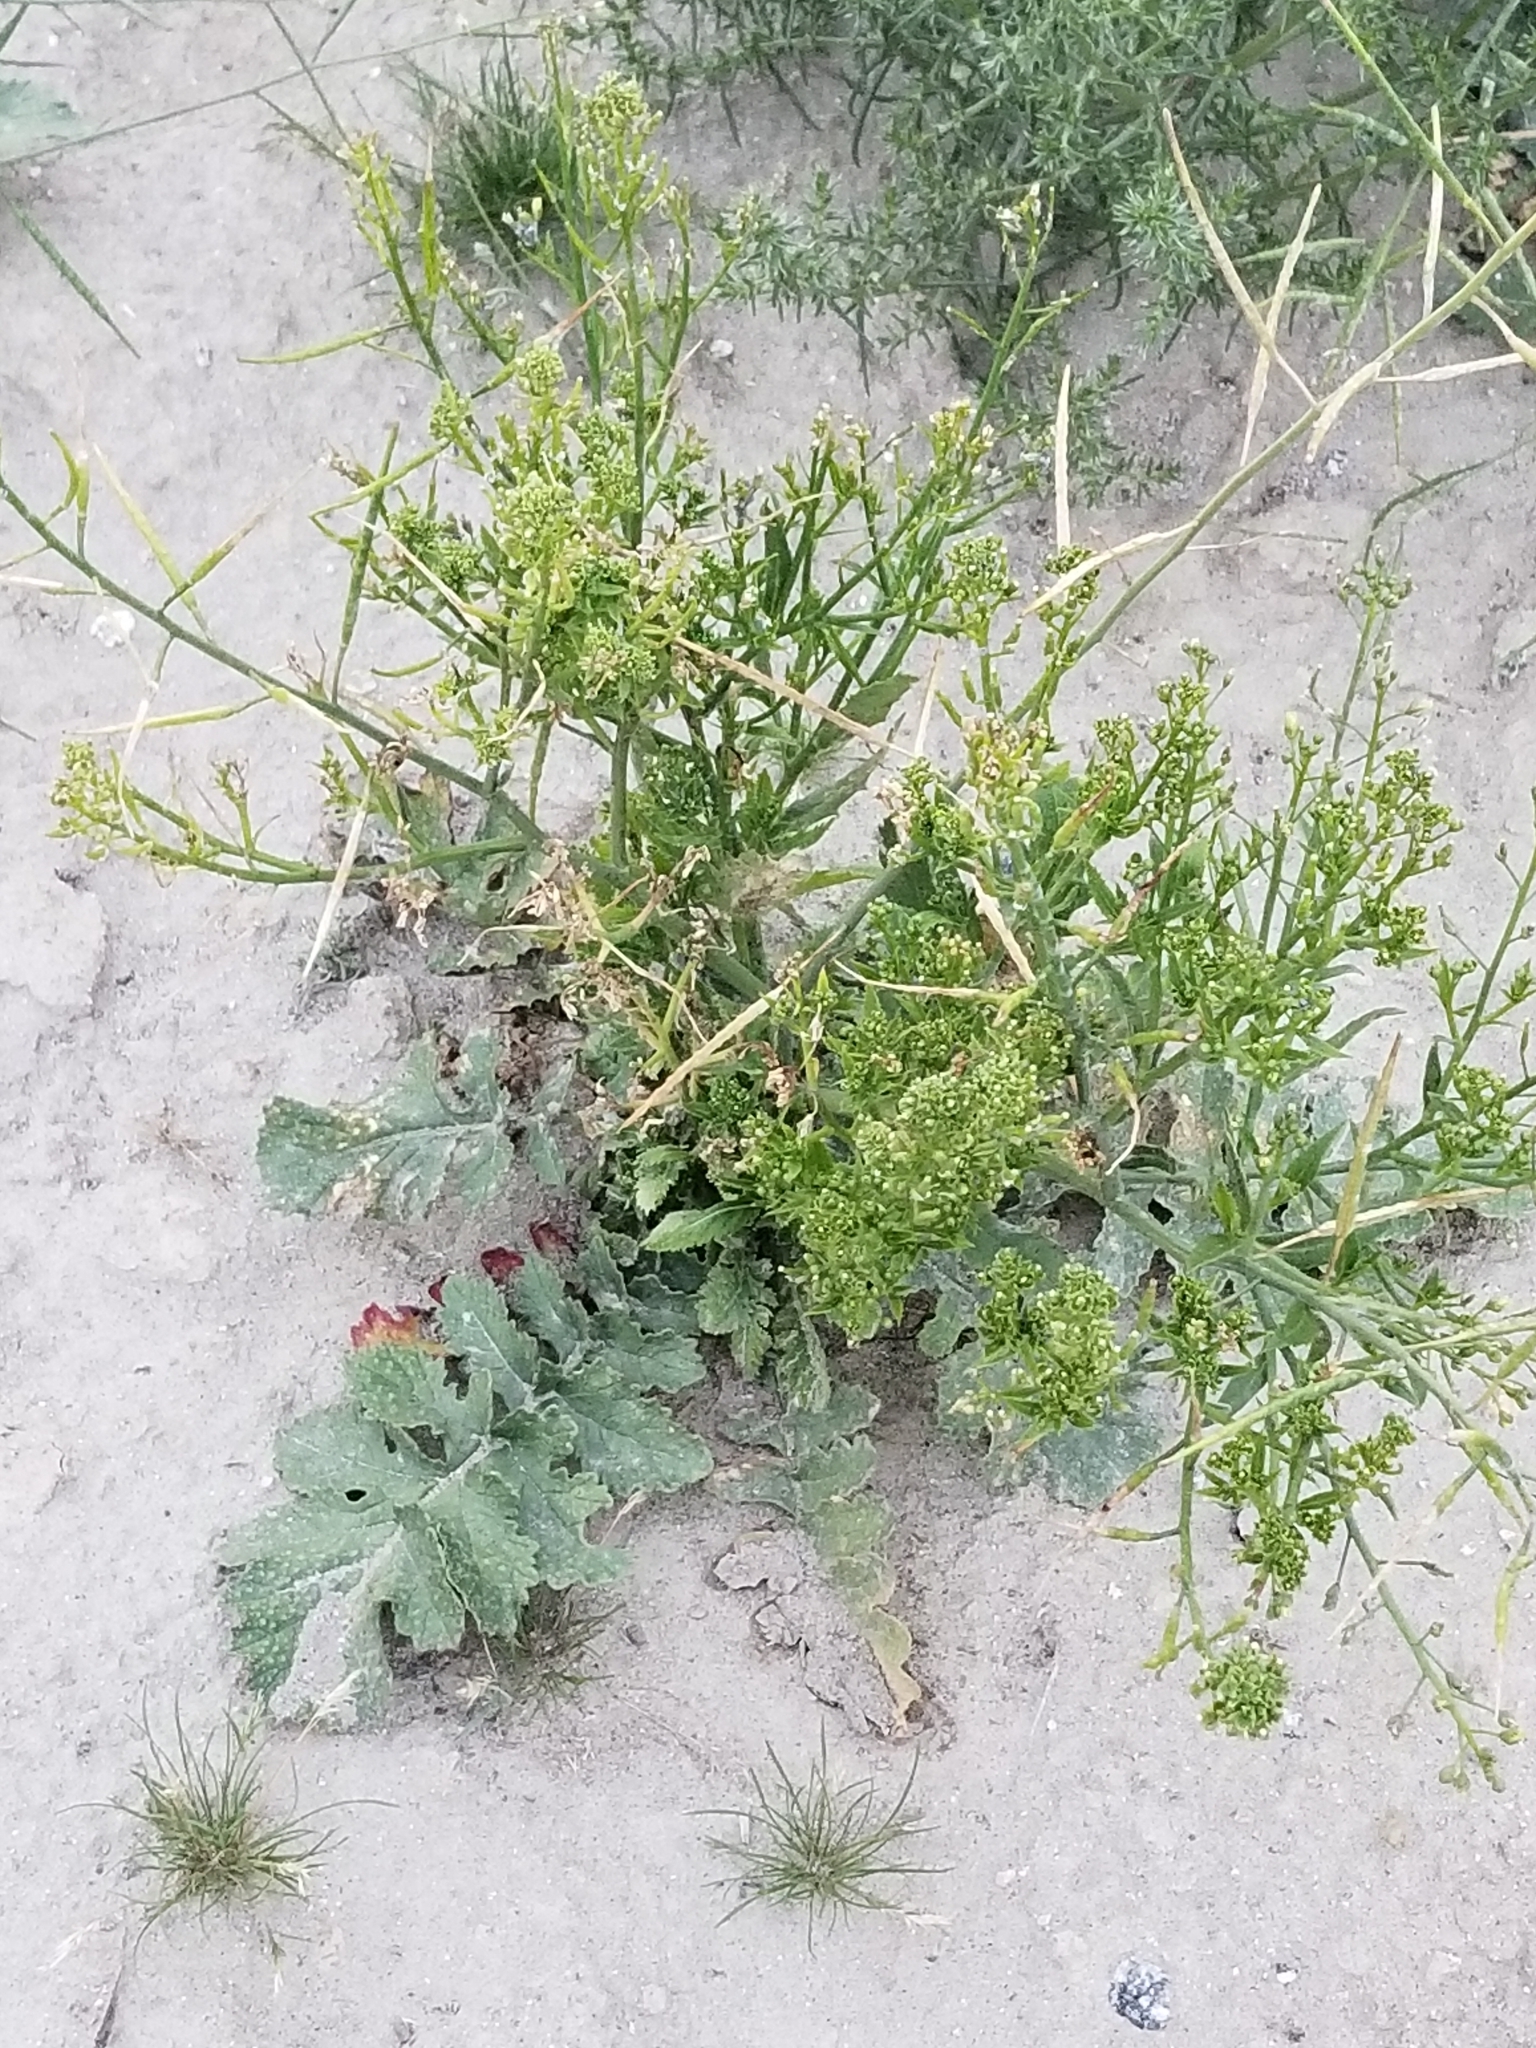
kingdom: Plantae
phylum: Tracheophyta
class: Magnoliopsida
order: Brassicales
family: Brassicaceae
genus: Brassica
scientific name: Brassica tournefortii
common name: Pale cabbage
